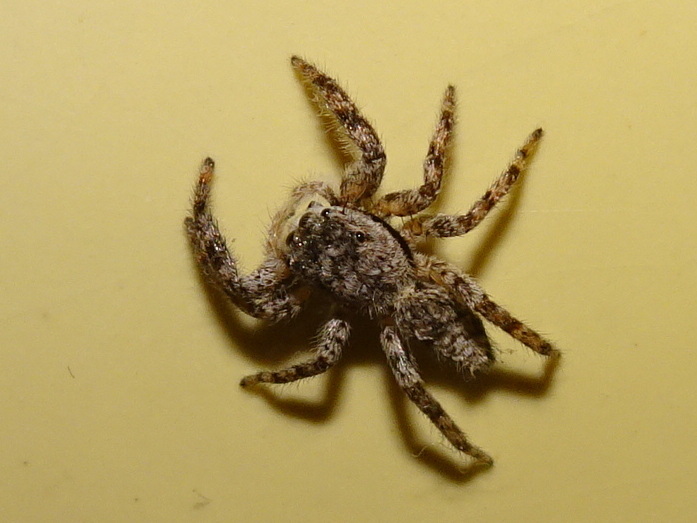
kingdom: Animalia
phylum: Arthropoda
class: Arachnida
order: Araneae
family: Salticidae
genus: Platycryptus
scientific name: Platycryptus undatus
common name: Tan jumping spider
